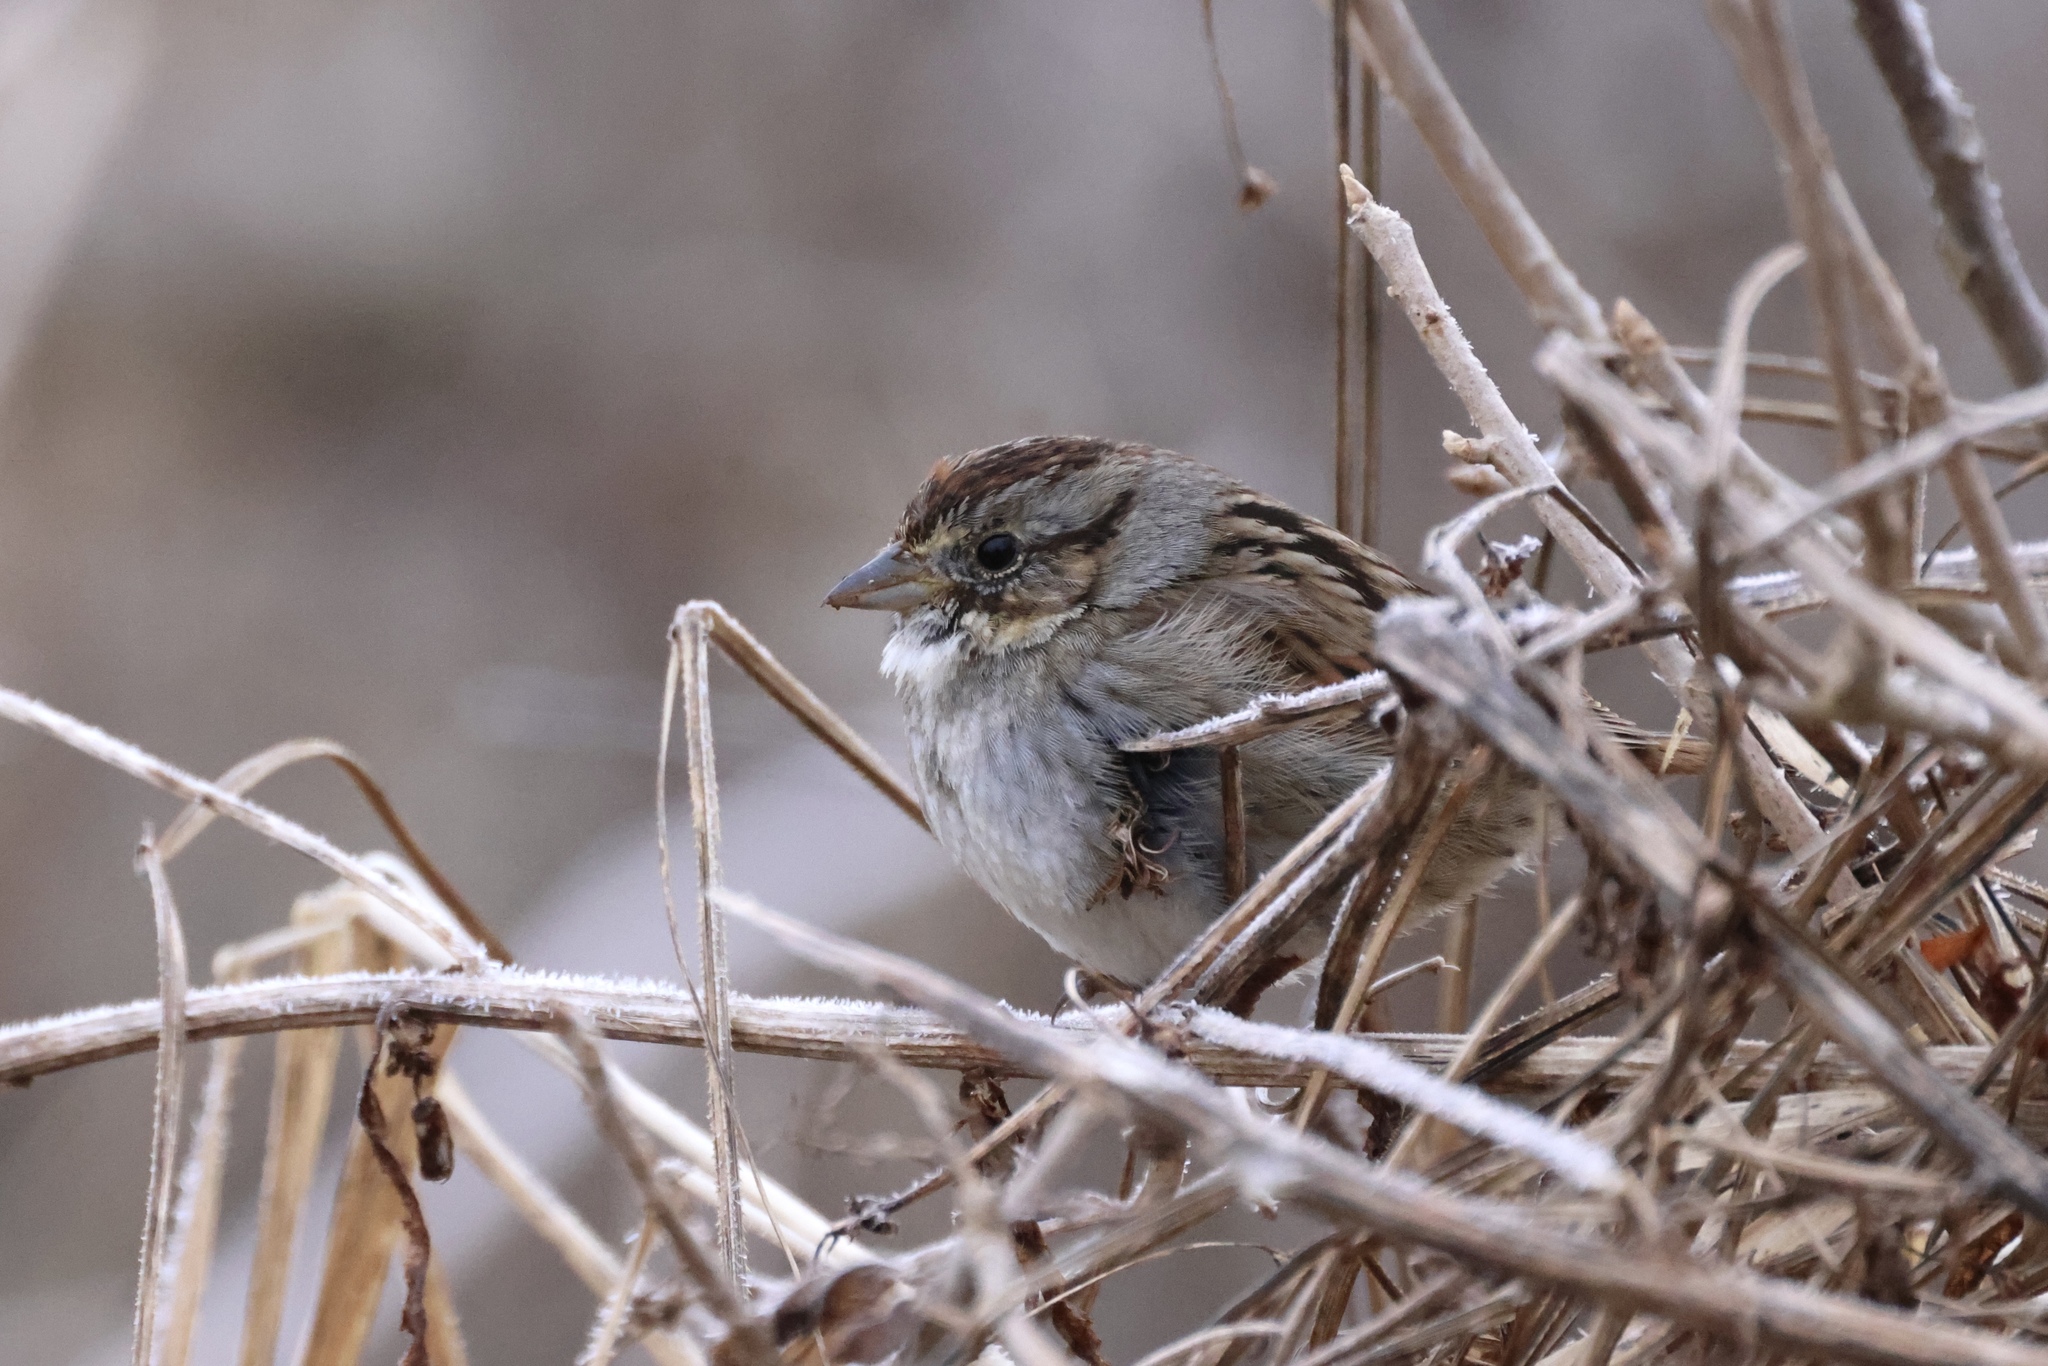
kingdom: Animalia
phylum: Chordata
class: Aves
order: Passeriformes
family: Passerellidae
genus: Melospiza
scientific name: Melospiza georgiana
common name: Swamp sparrow
